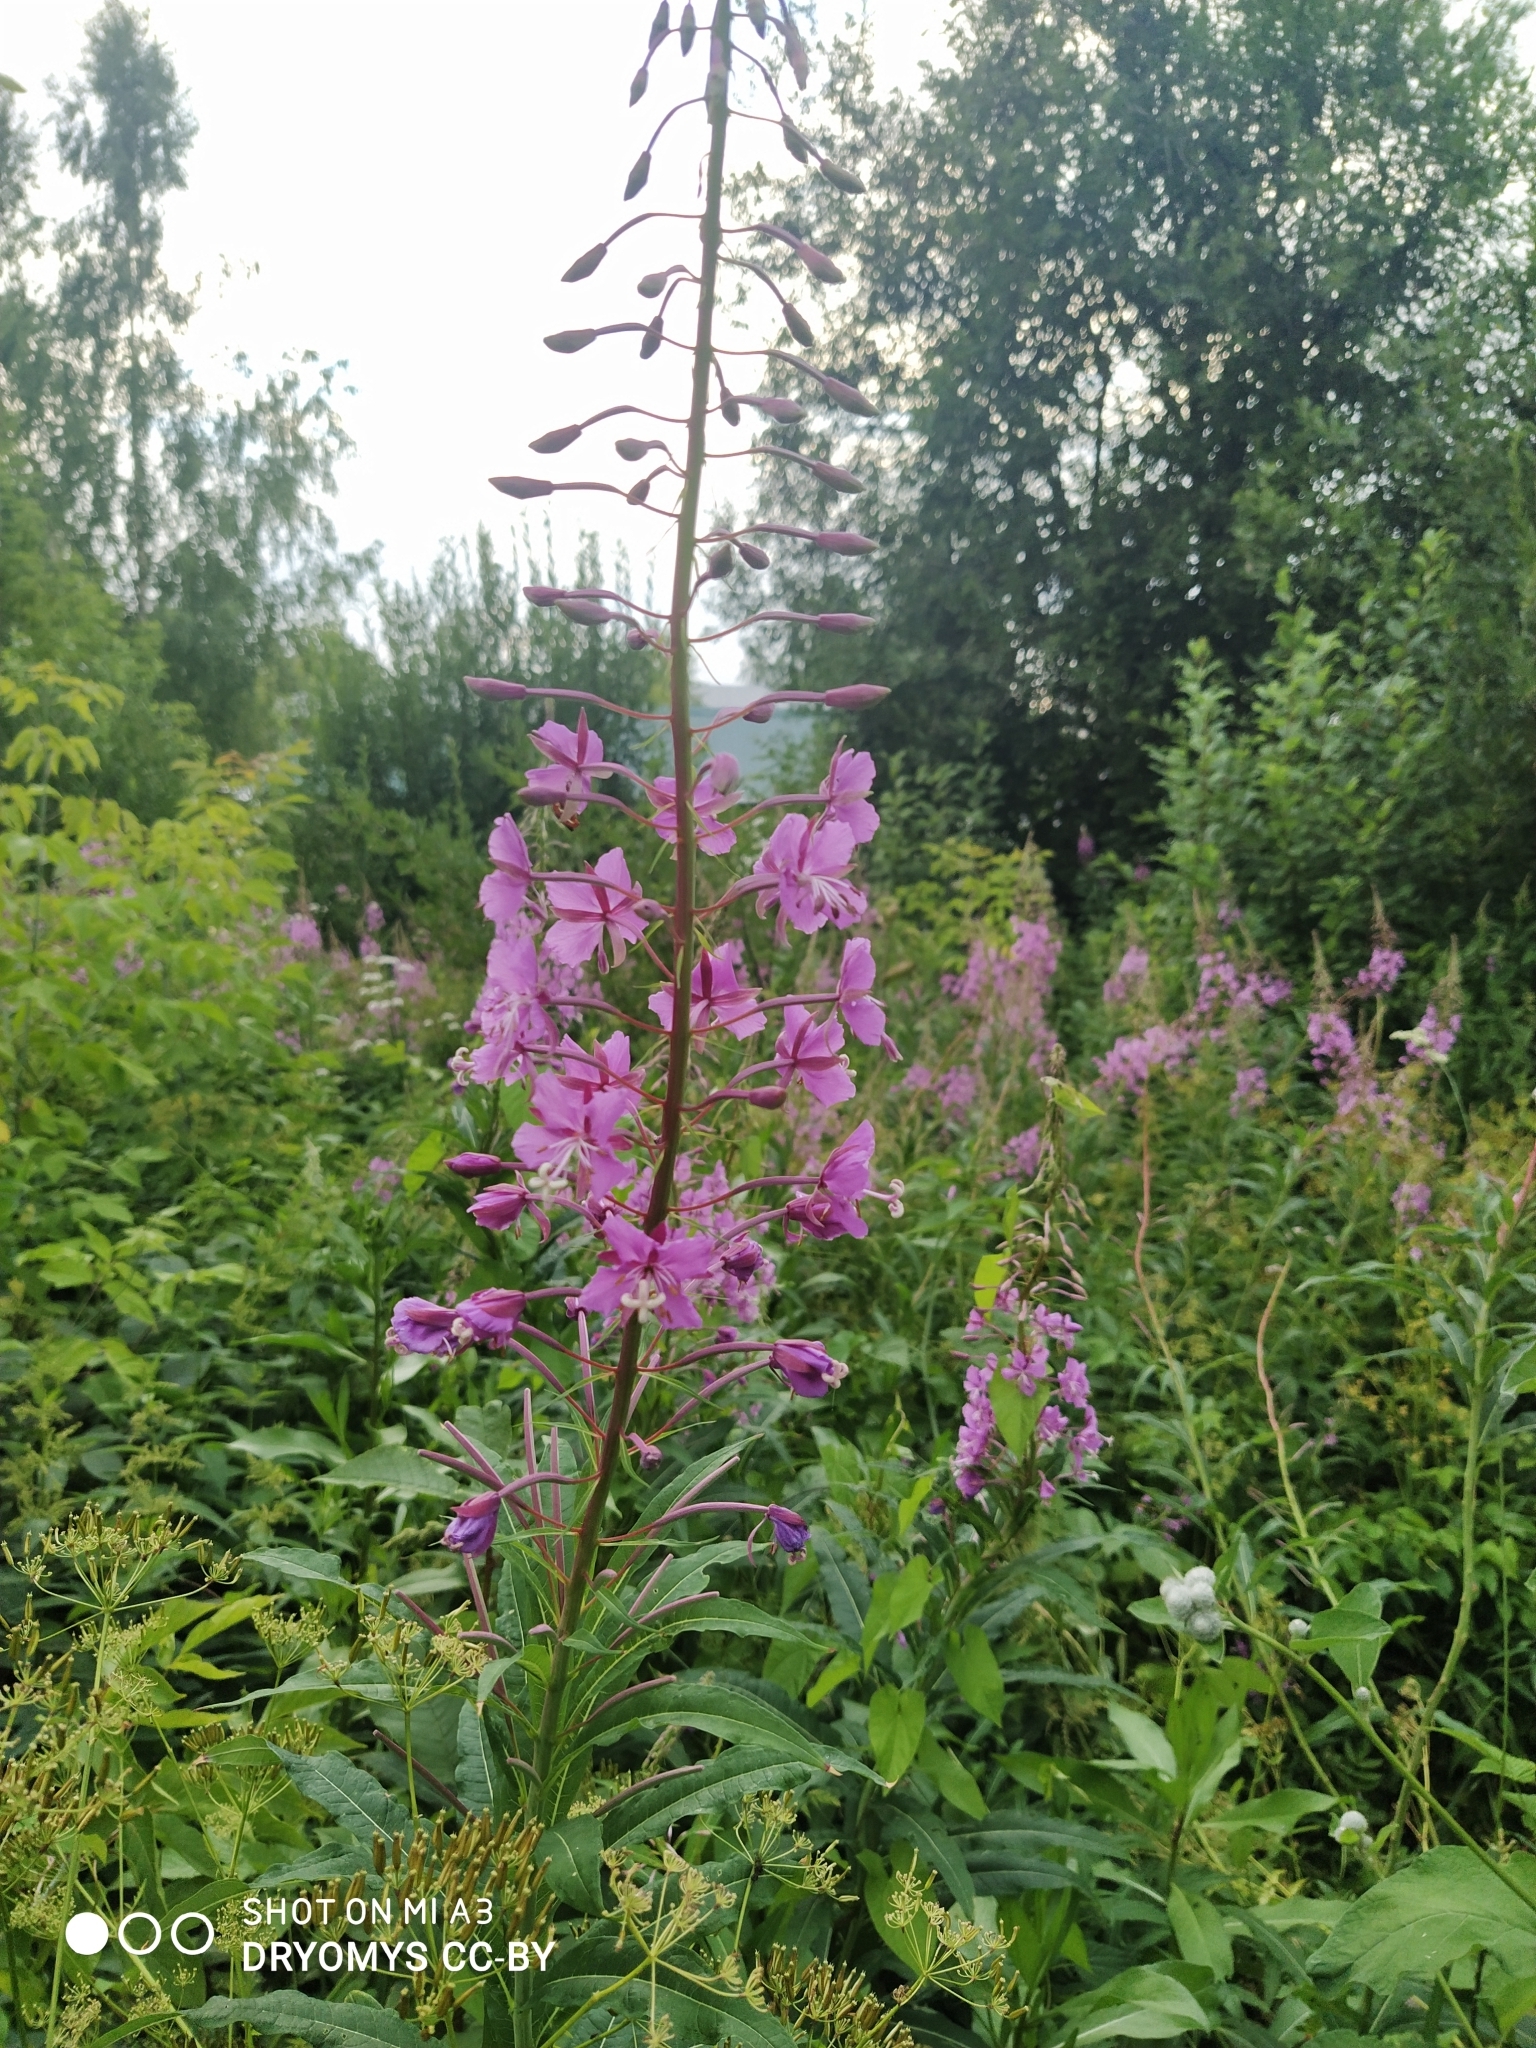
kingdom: Plantae
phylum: Tracheophyta
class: Magnoliopsida
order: Myrtales
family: Onagraceae
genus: Chamaenerion
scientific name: Chamaenerion angustifolium
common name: Fireweed
